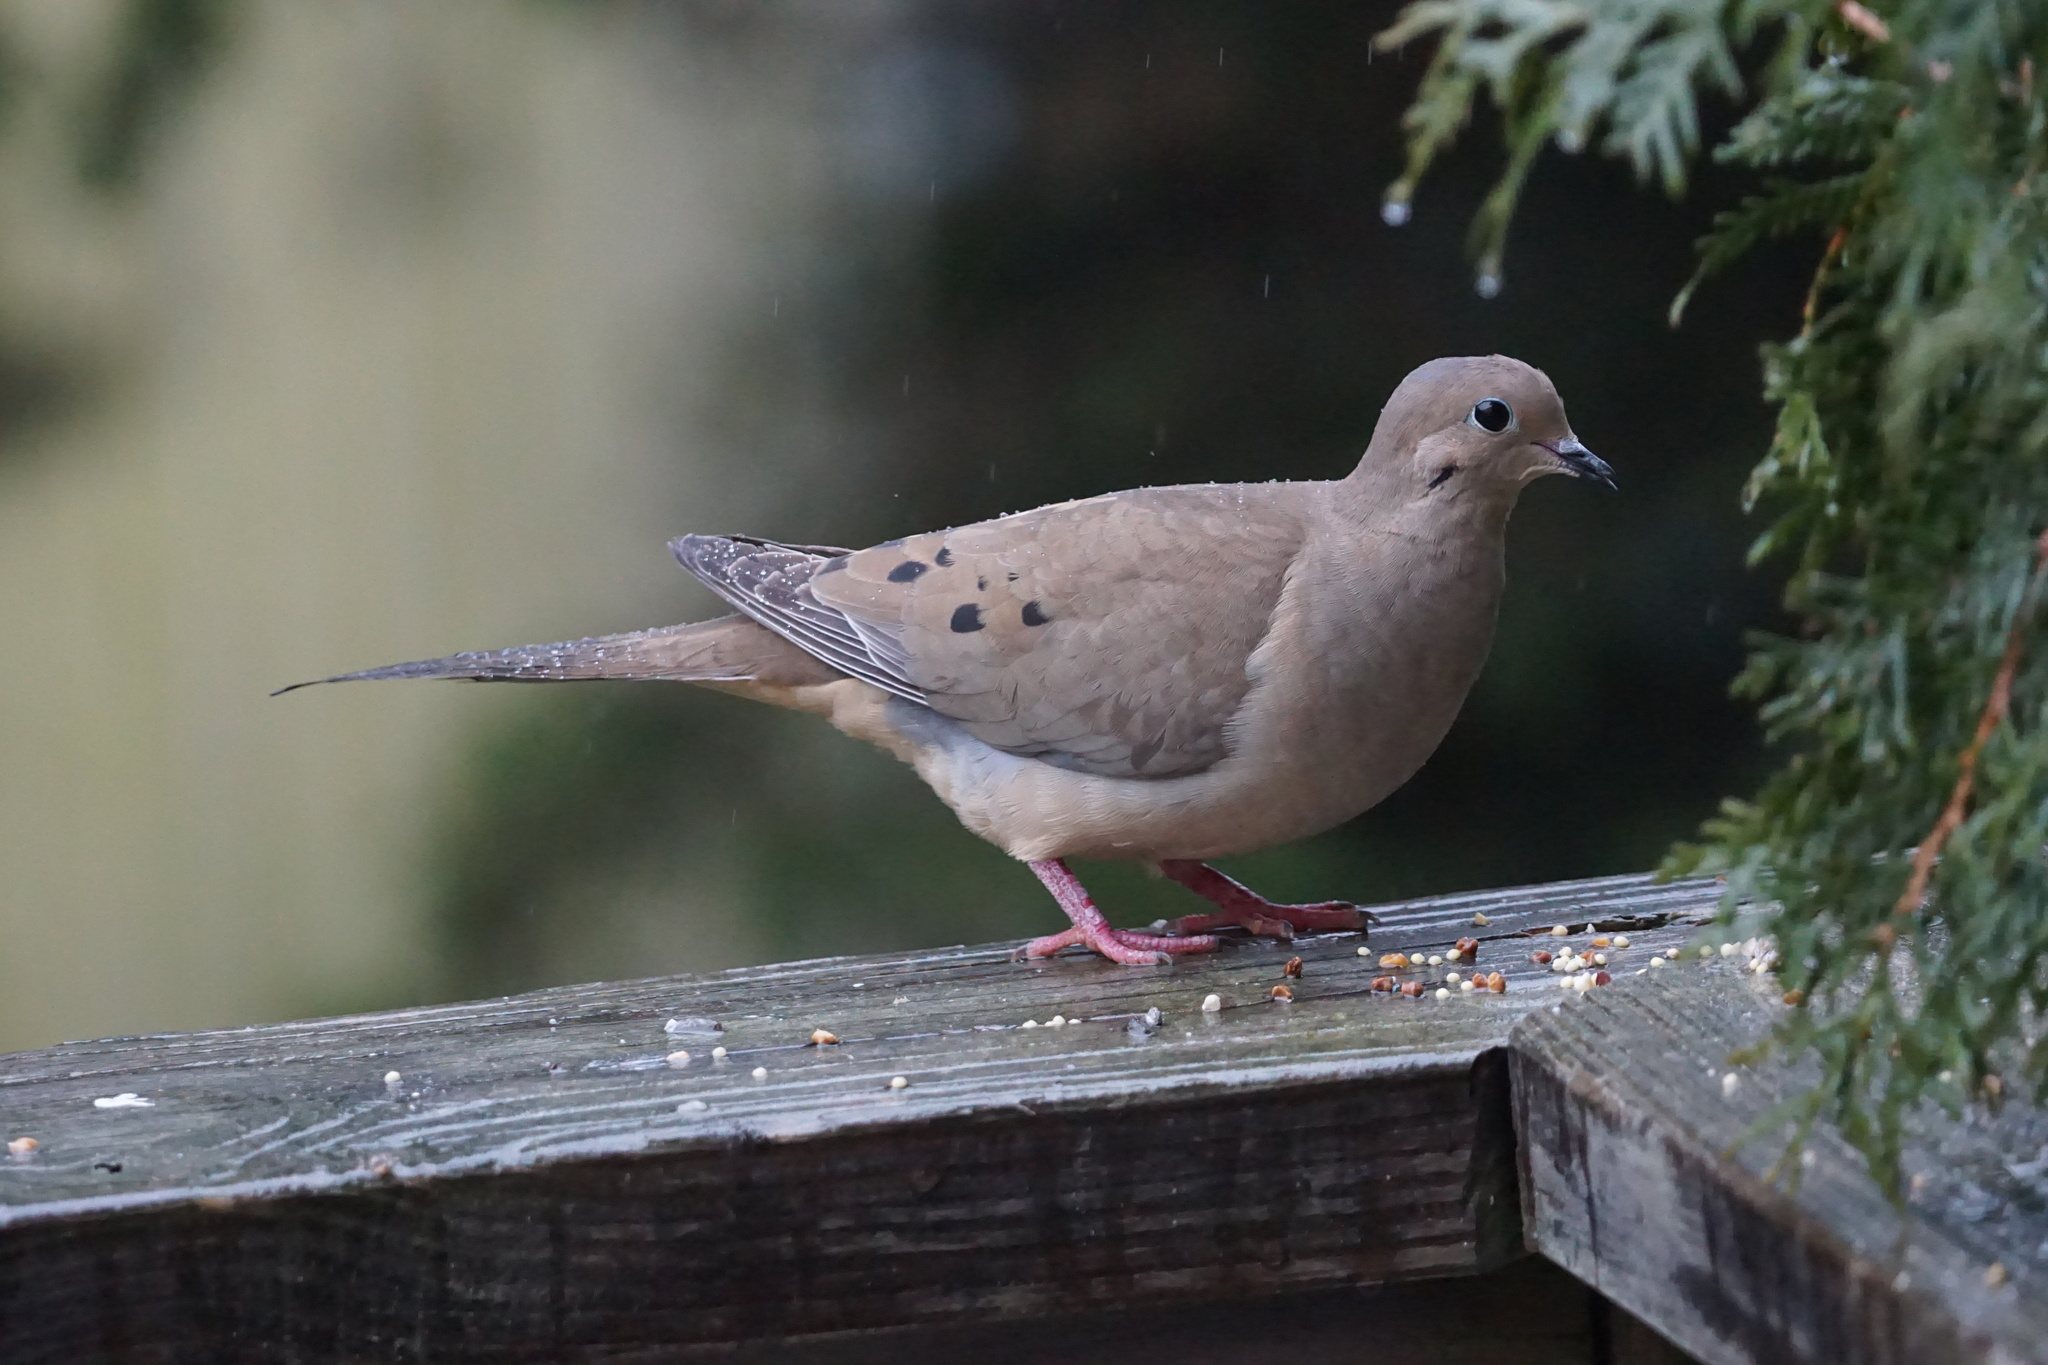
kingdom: Animalia
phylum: Chordata
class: Aves
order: Columbiformes
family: Columbidae
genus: Zenaida
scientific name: Zenaida macroura
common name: Mourning dove
